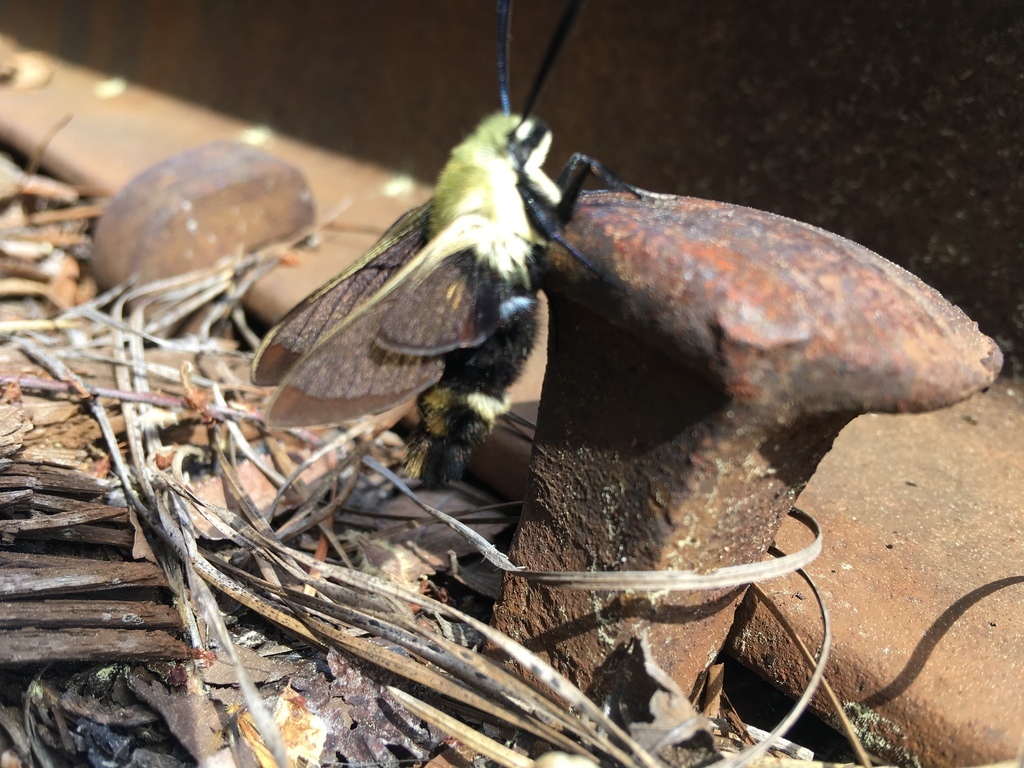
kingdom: Animalia
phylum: Arthropoda
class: Insecta
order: Lepidoptera
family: Sphingidae
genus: Hemaris
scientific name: Hemaris diffinis
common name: Bumblebee moth
